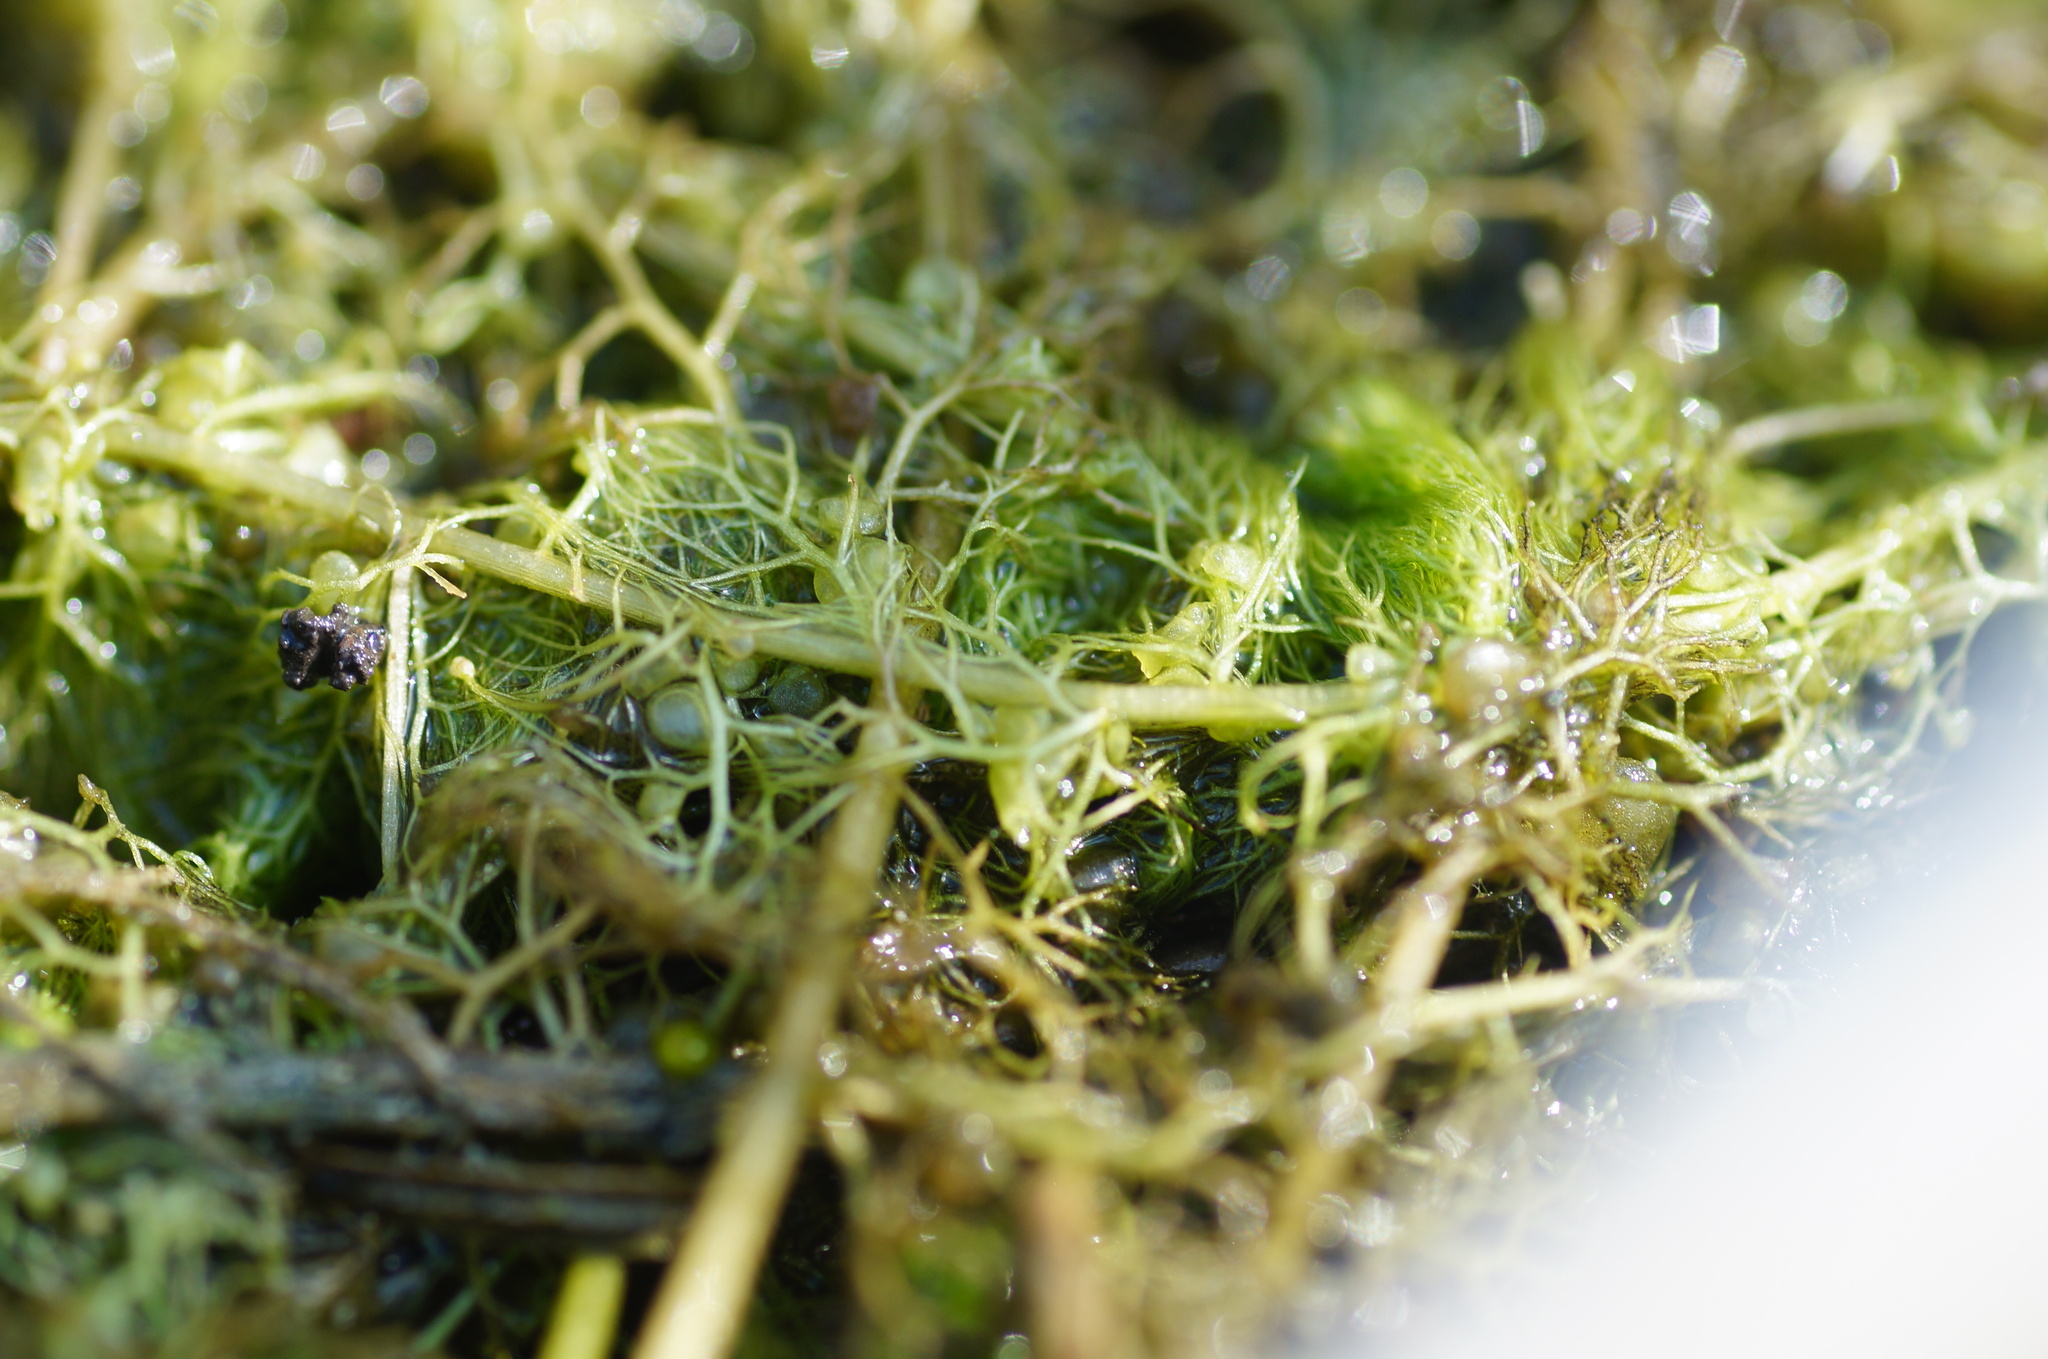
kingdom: Plantae
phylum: Tracheophyta
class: Magnoliopsida
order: Lamiales
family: Lentibulariaceae
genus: Utricularia
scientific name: Utricularia australis
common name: Bladderwort
